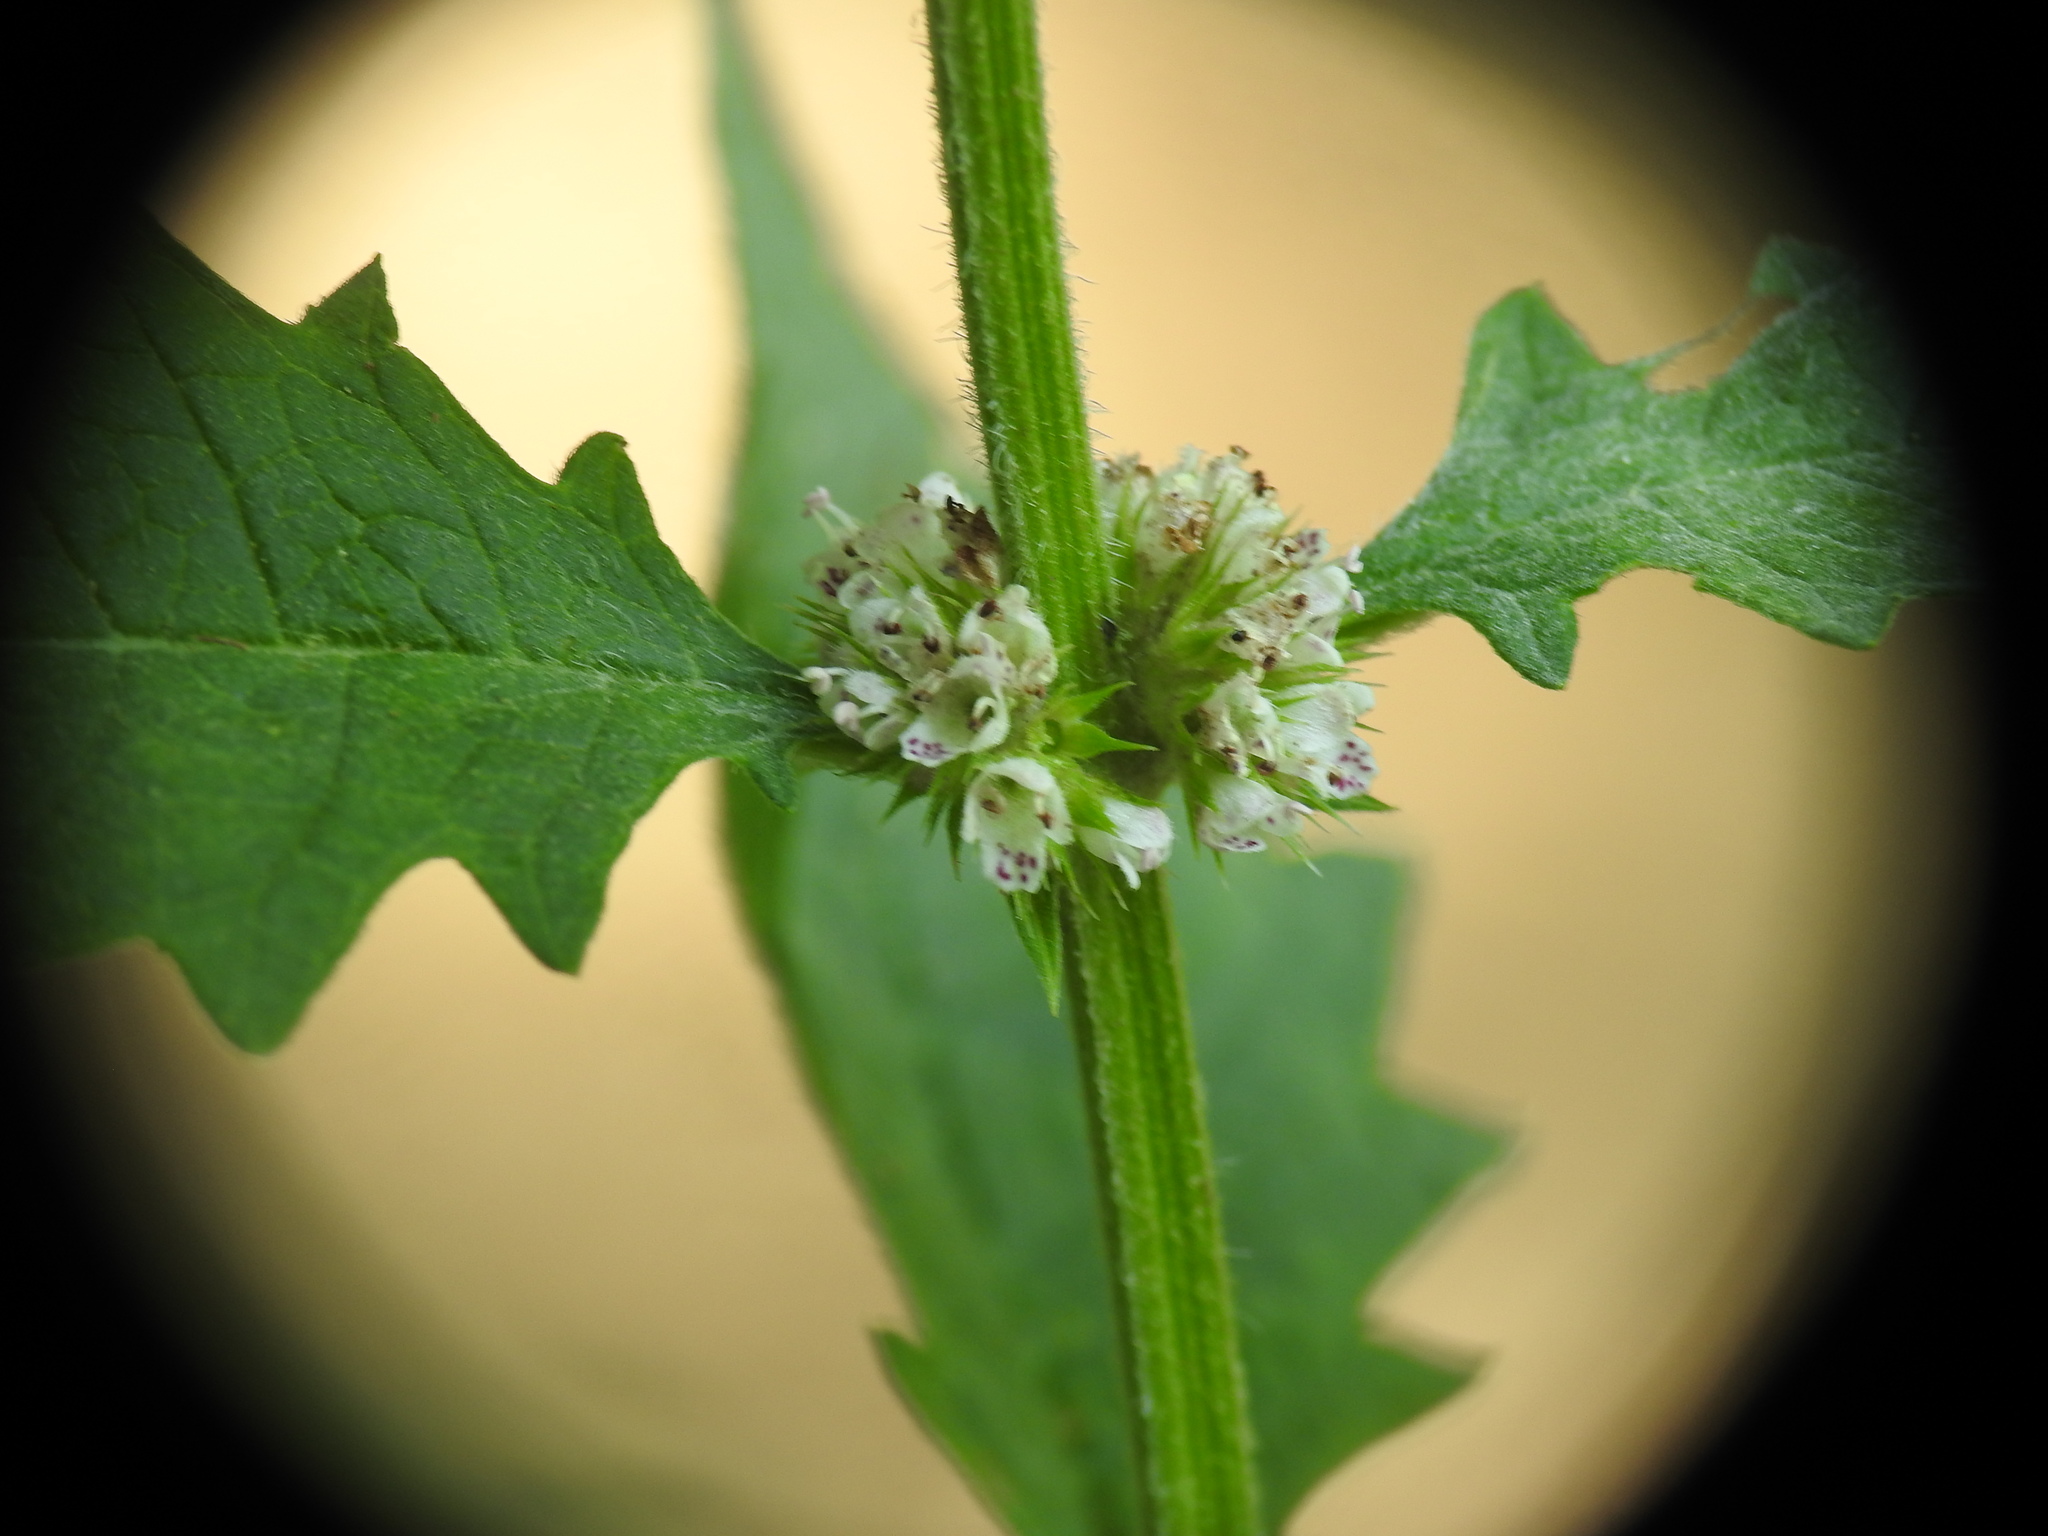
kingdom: Plantae
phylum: Tracheophyta
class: Magnoliopsida
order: Lamiales
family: Lamiaceae
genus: Lycopus
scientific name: Lycopus europaeus
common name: European bugleweed
